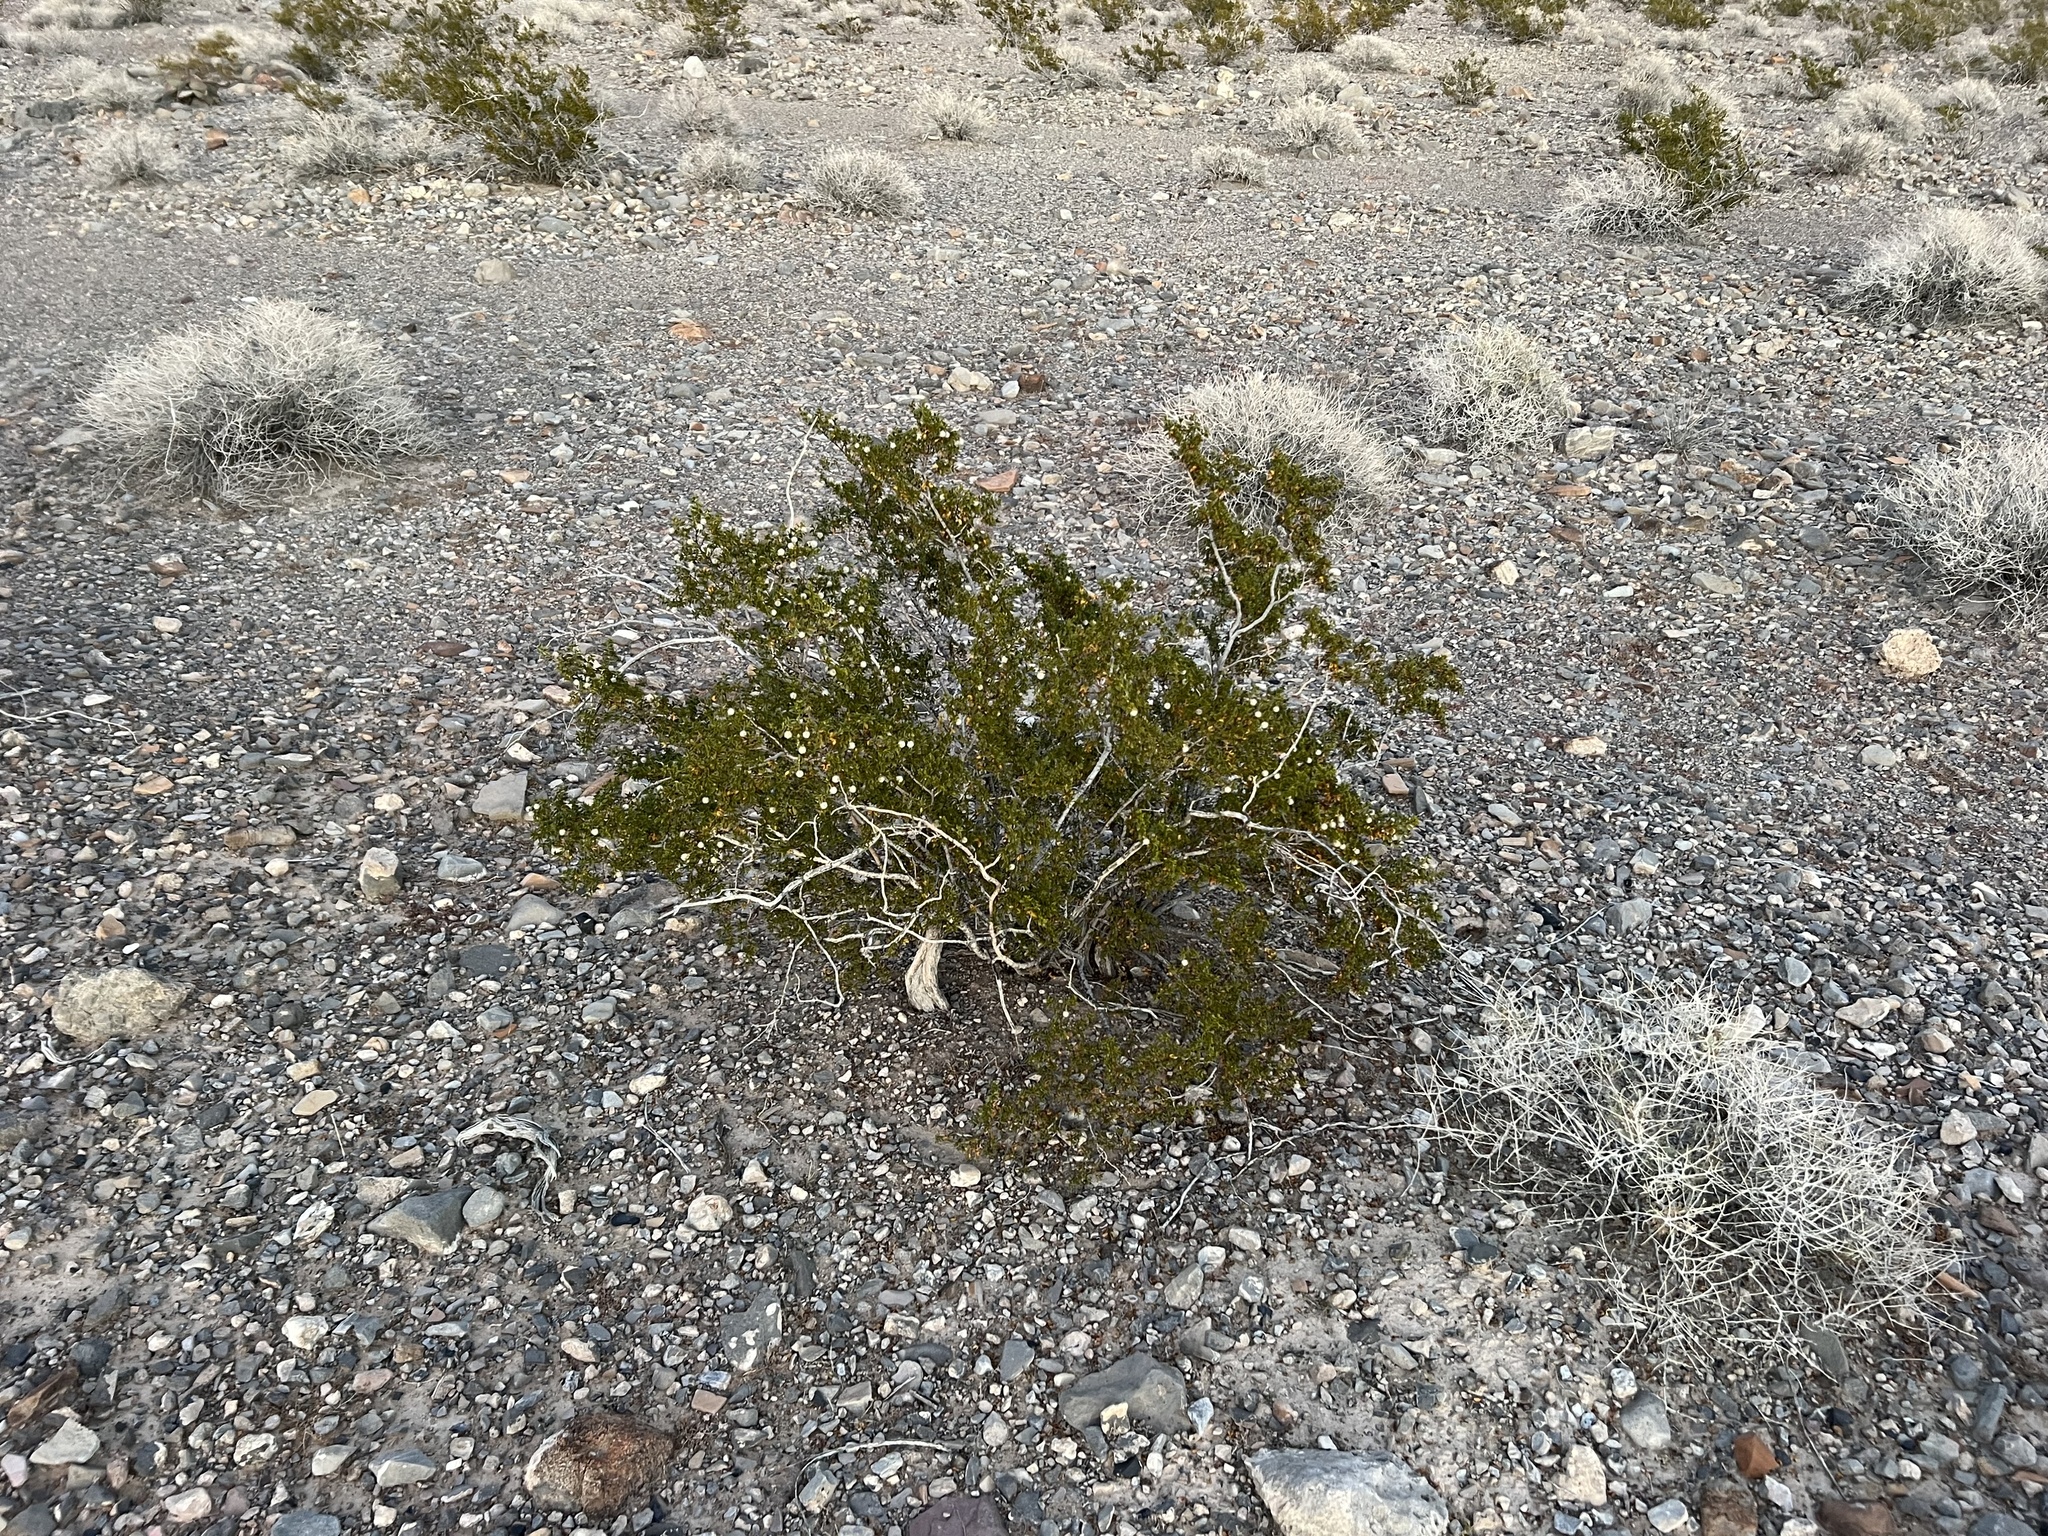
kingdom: Plantae
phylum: Tracheophyta
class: Magnoliopsida
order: Zygophyllales
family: Zygophyllaceae
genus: Larrea
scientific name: Larrea tridentata
